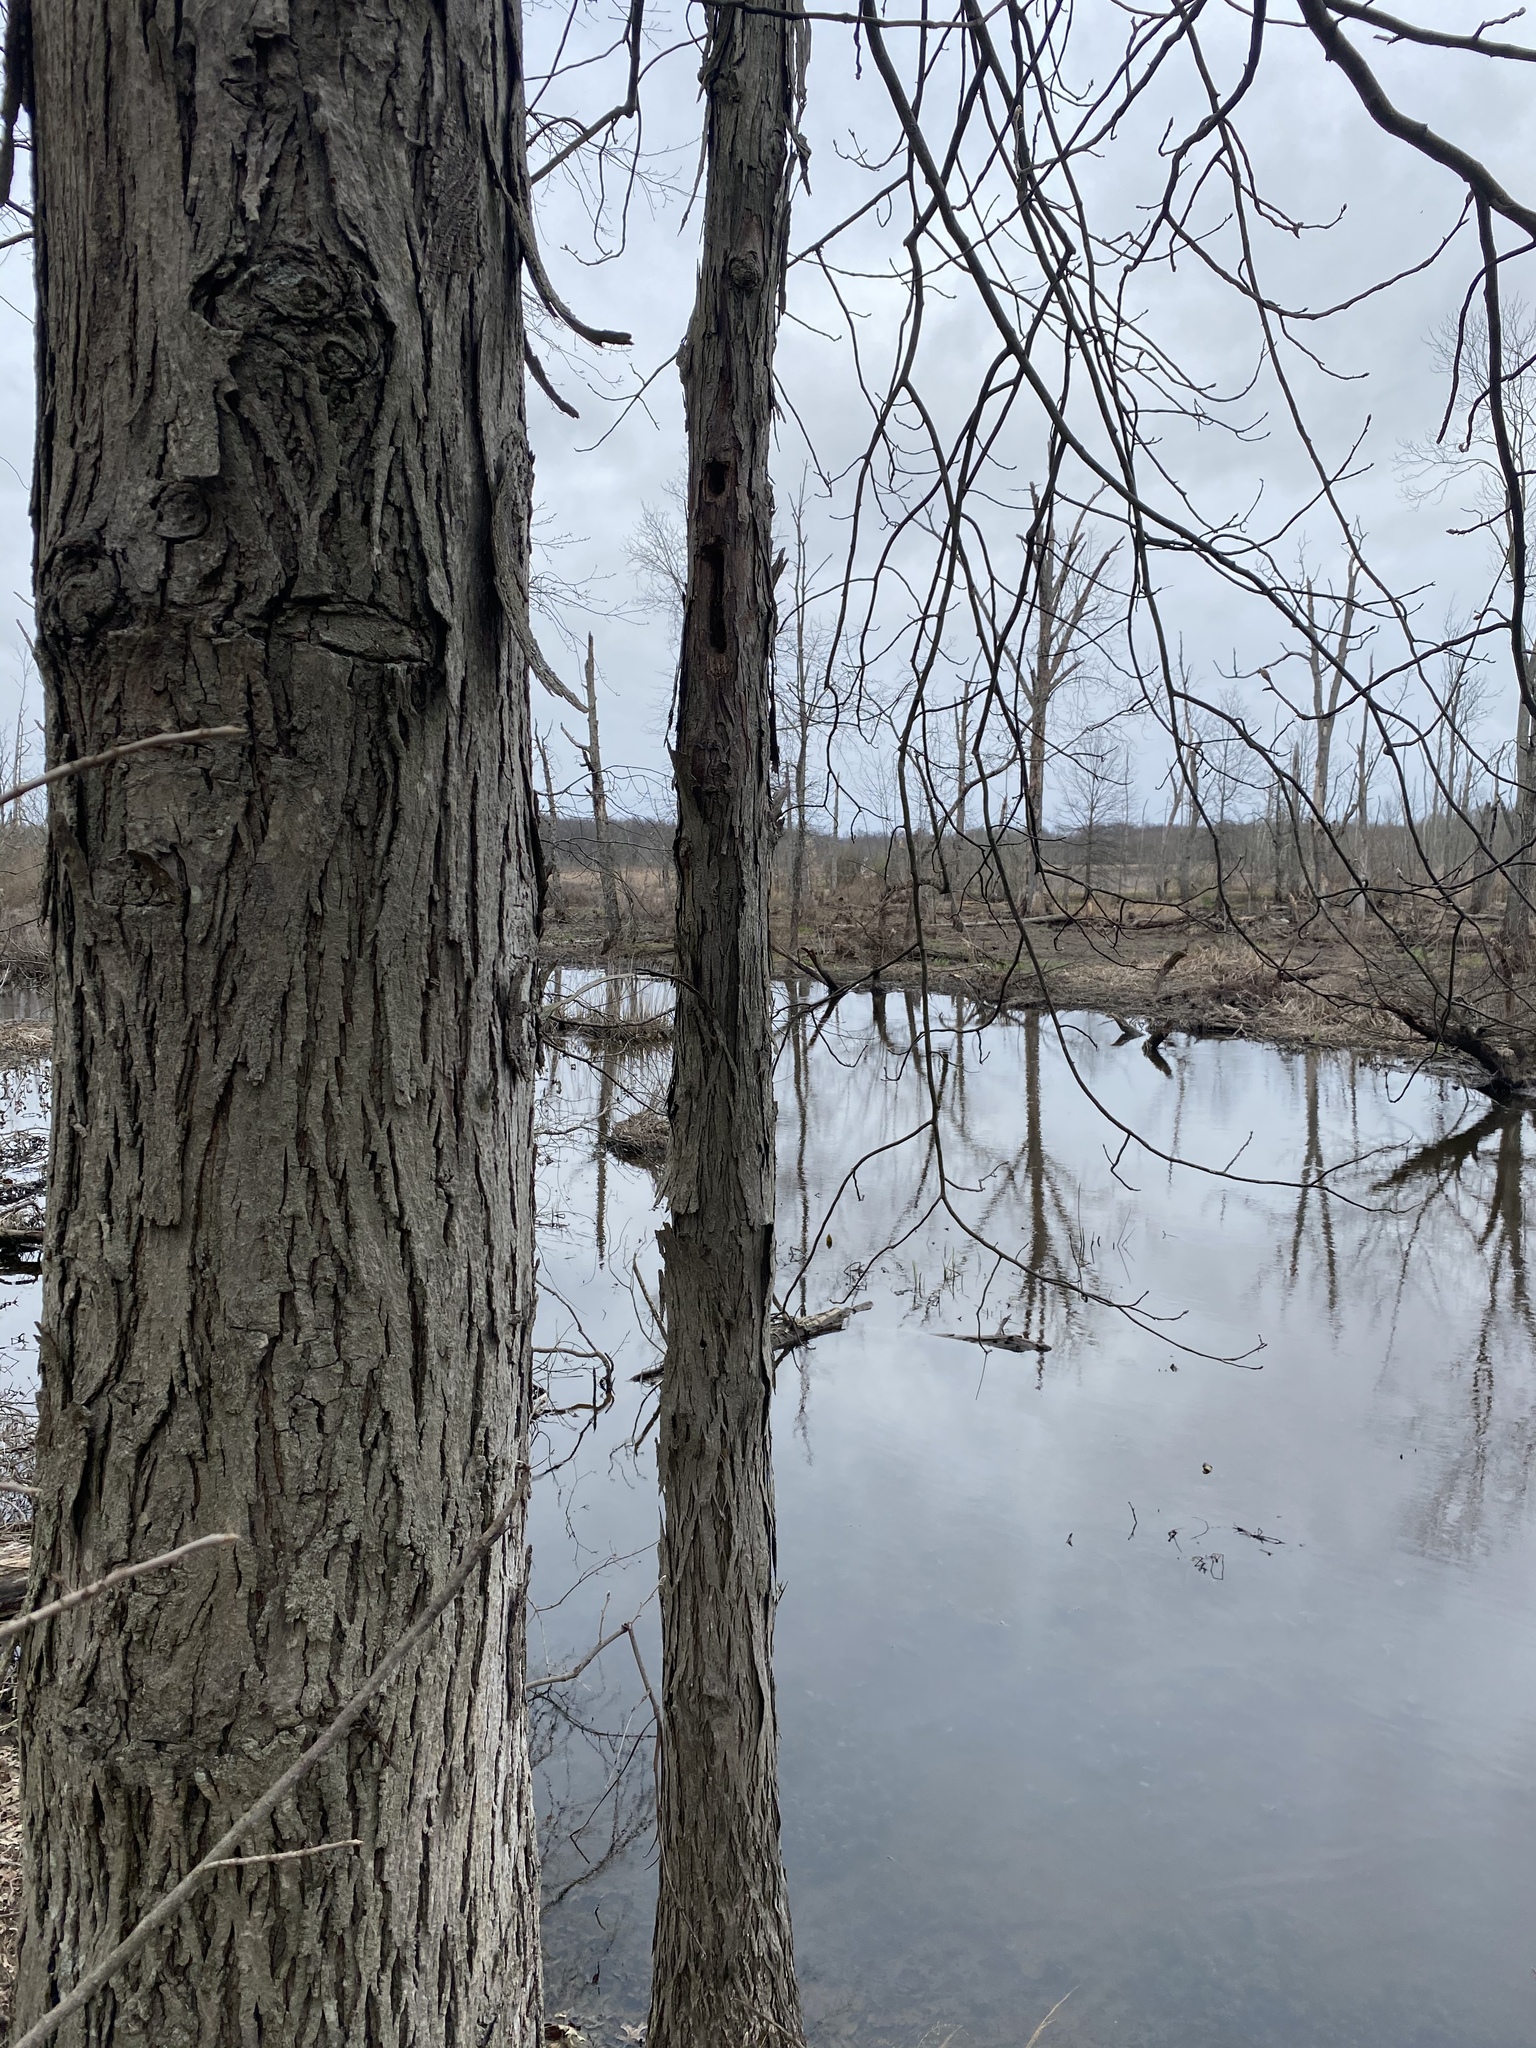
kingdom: Plantae
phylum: Tracheophyta
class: Magnoliopsida
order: Fagales
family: Juglandaceae
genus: Carya
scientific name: Carya ovata
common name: Shagbark hickory
